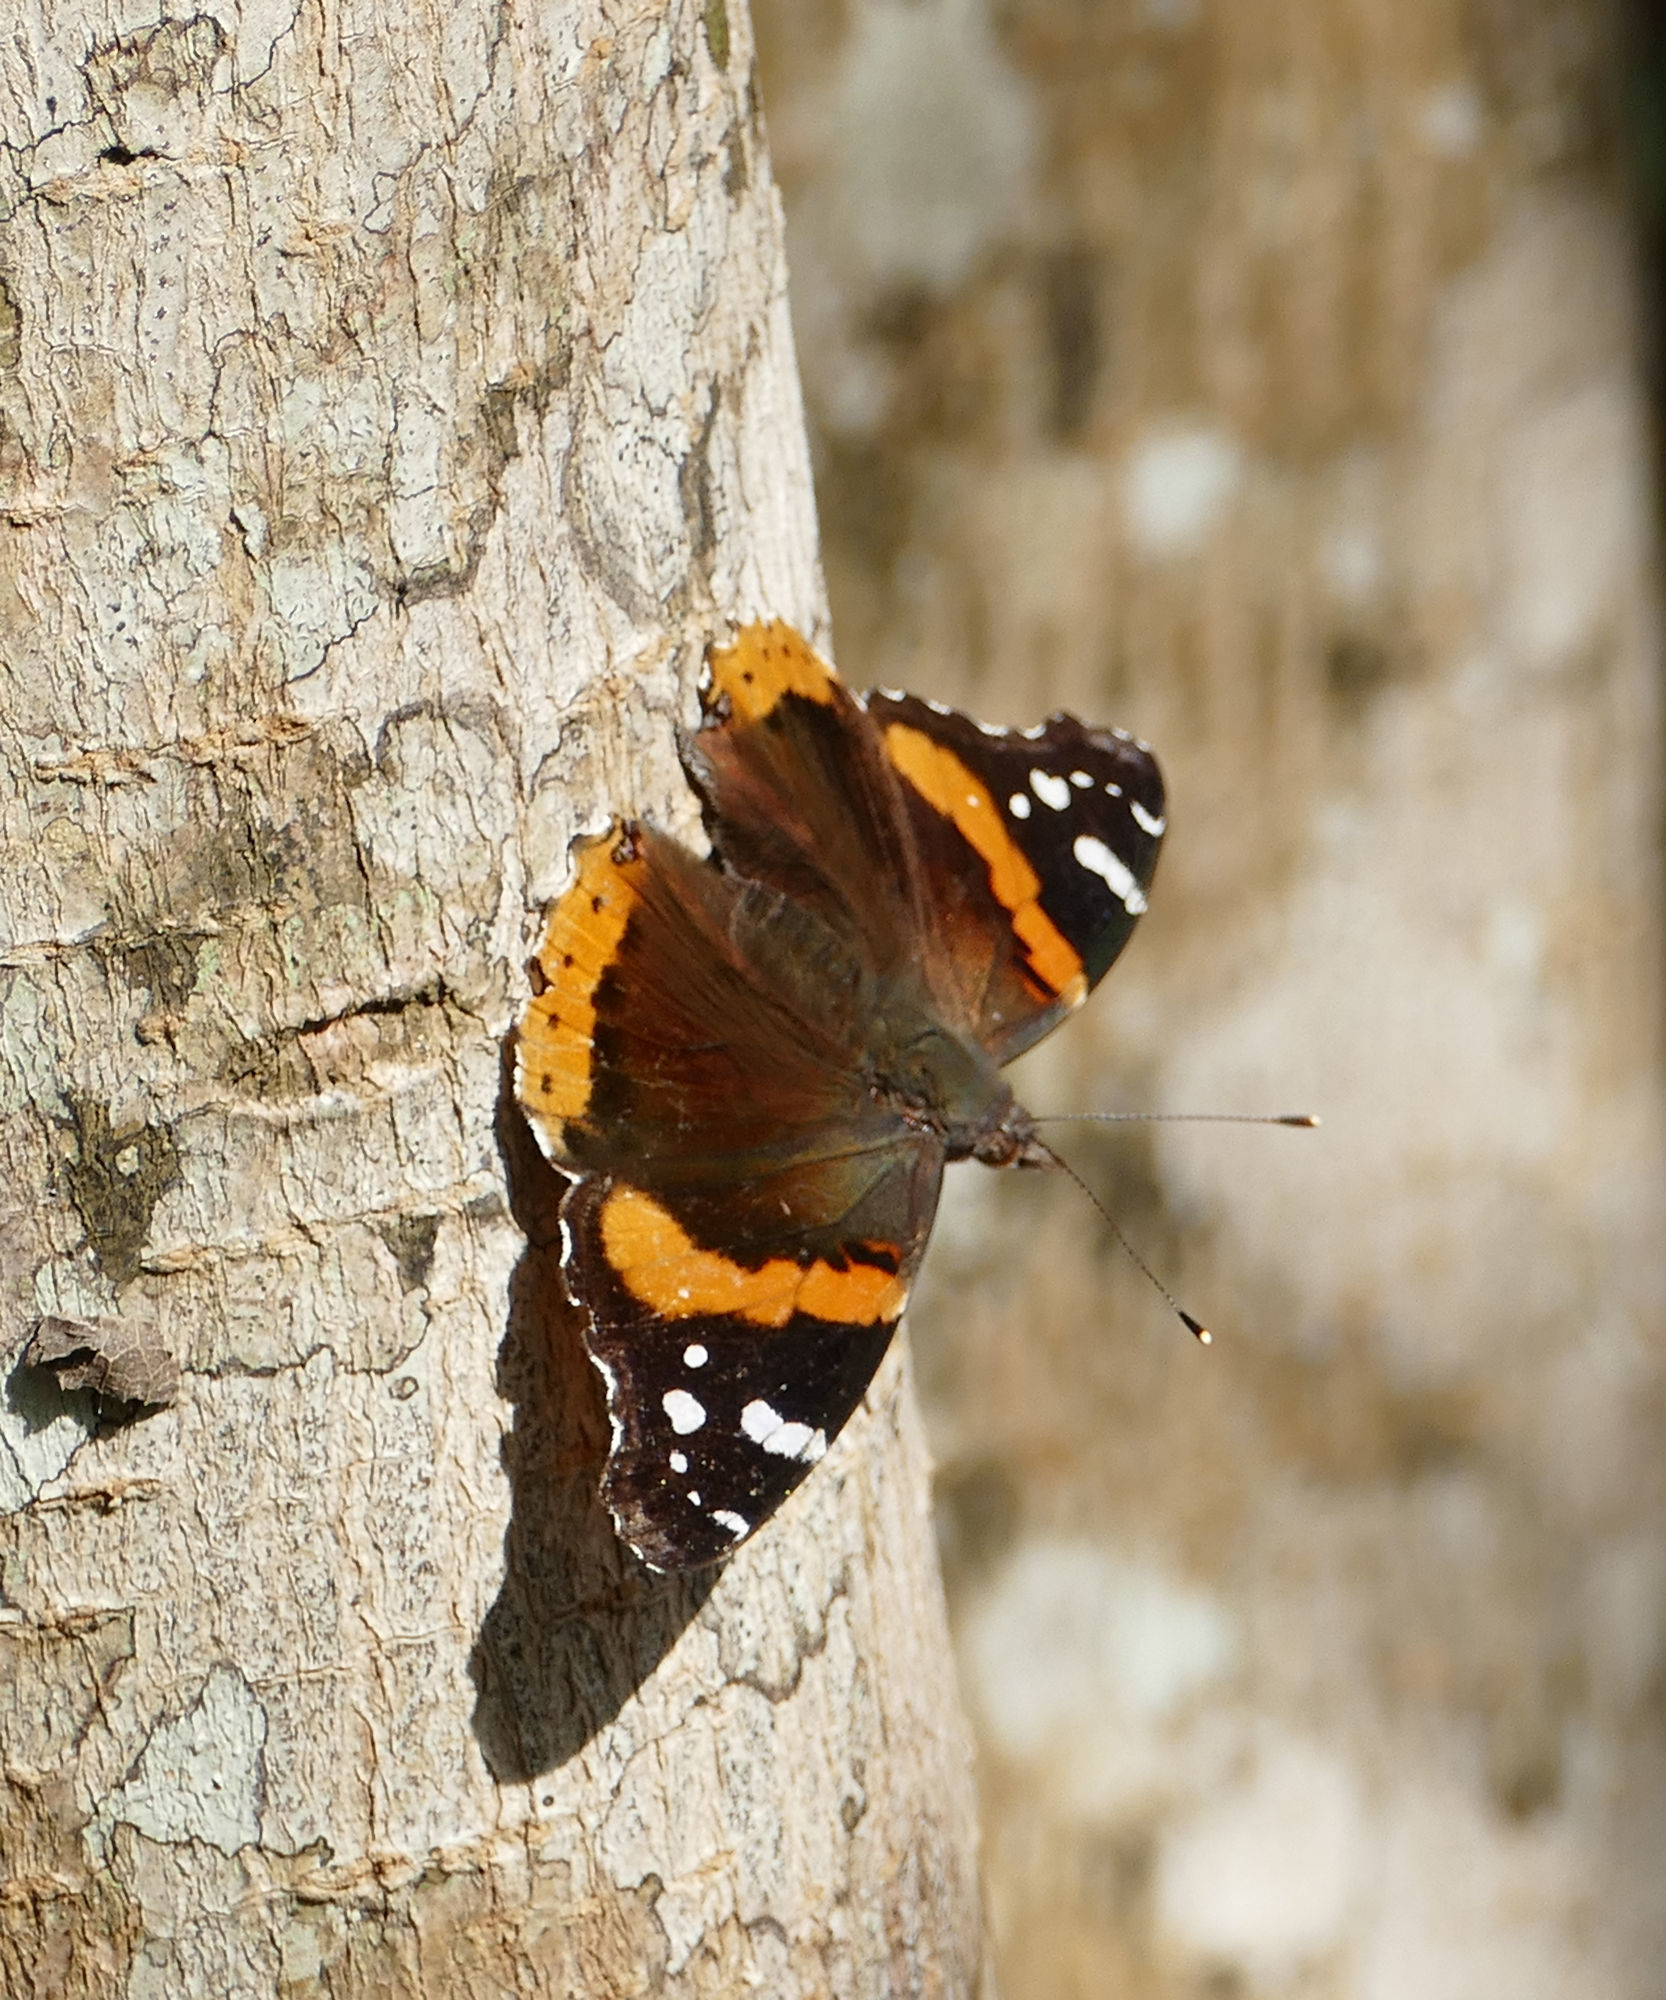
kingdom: Animalia
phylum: Arthropoda
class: Insecta
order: Lepidoptera
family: Nymphalidae
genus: Vanessa
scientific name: Vanessa atalanta
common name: Red admiral
